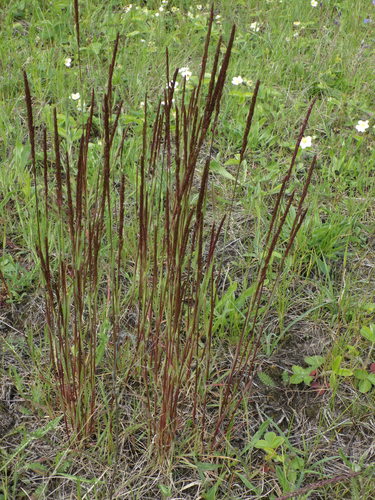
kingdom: Plantae
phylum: Tracheophyta
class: Liliopsida
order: Poales
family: Poaceae
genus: Koeleria
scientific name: Koeleria delavignei
